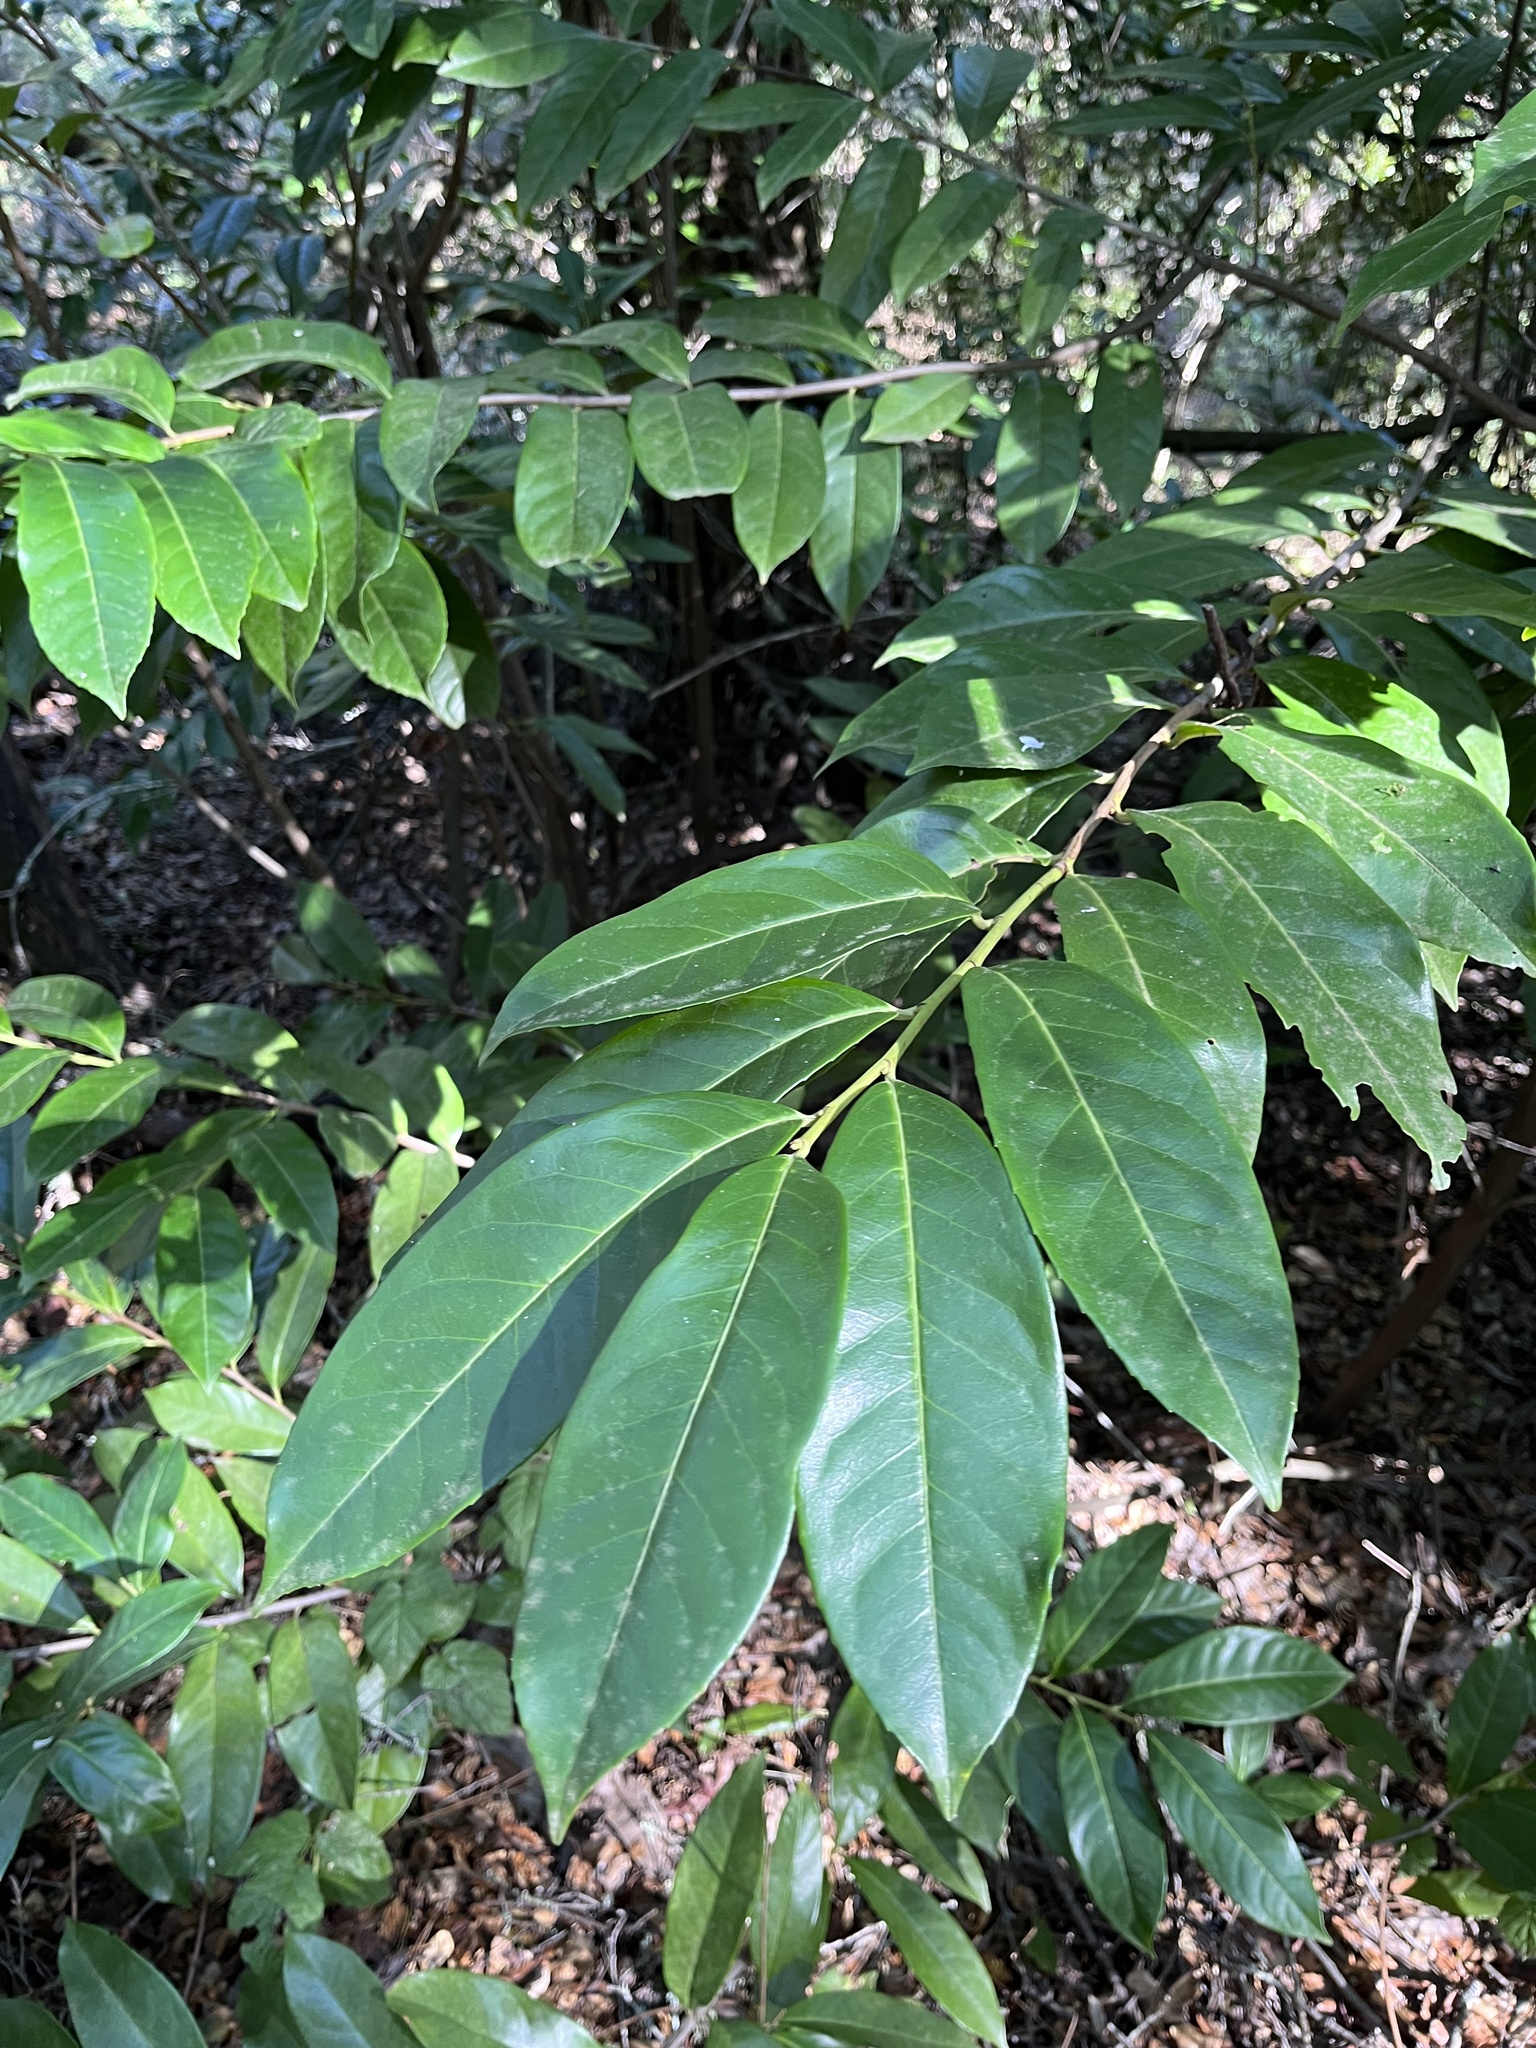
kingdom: Plantae
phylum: Tracheophyta
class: Magnoliopsida
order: Rosales
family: Rosaceae
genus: Prunus
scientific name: Prunus laurocerasus
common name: Cherry laurel
